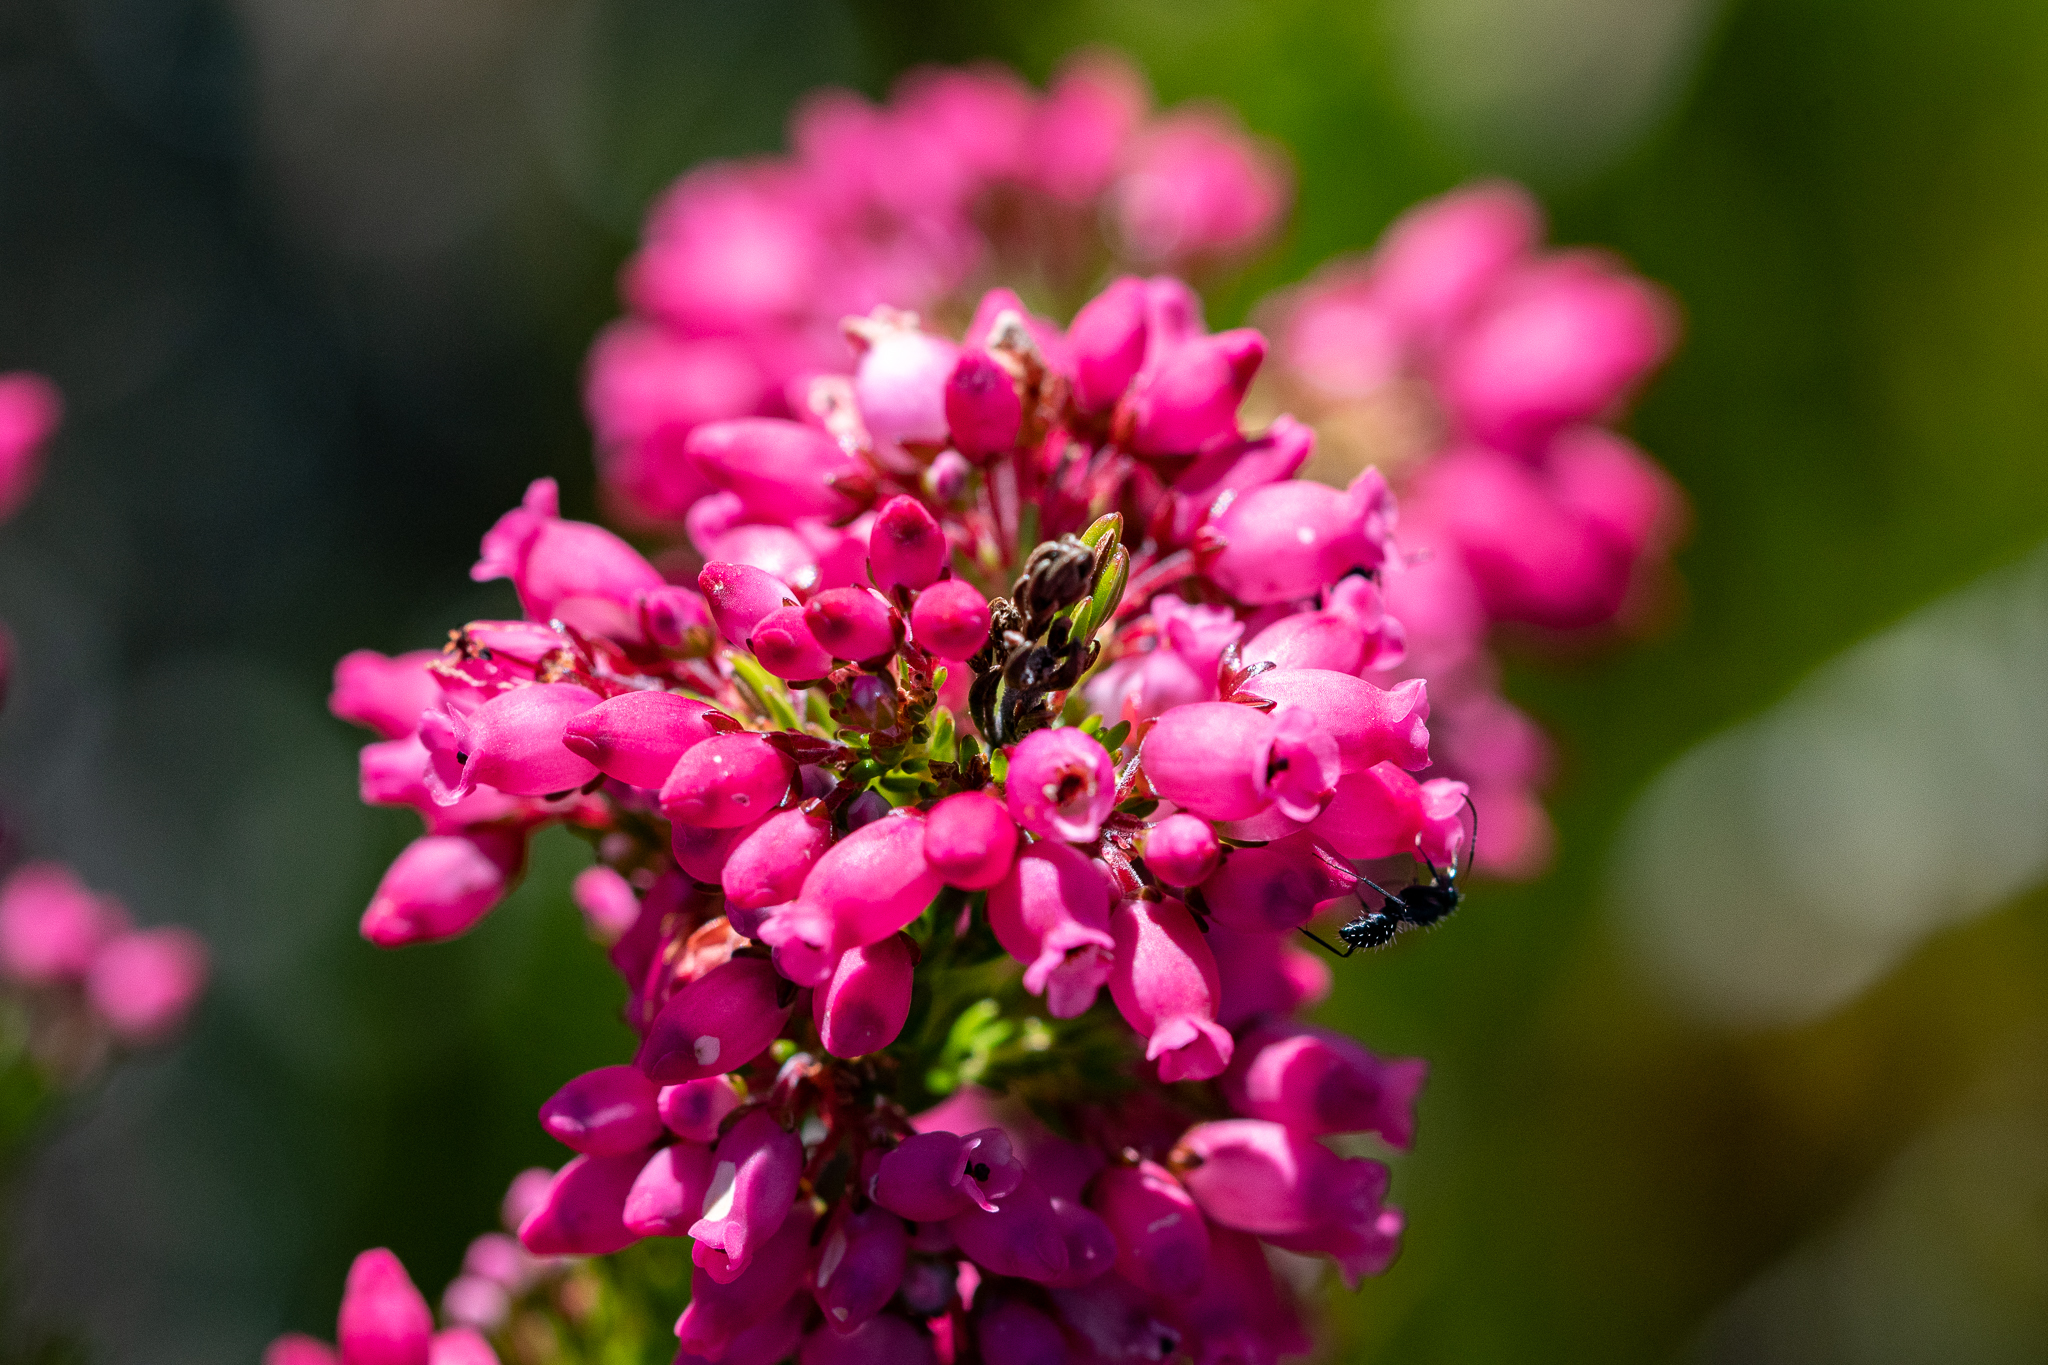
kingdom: Plantae
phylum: Tracheophyta
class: Magnoliopsida
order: Ericales
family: Ericaceae
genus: Erica
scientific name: Erica tenella
